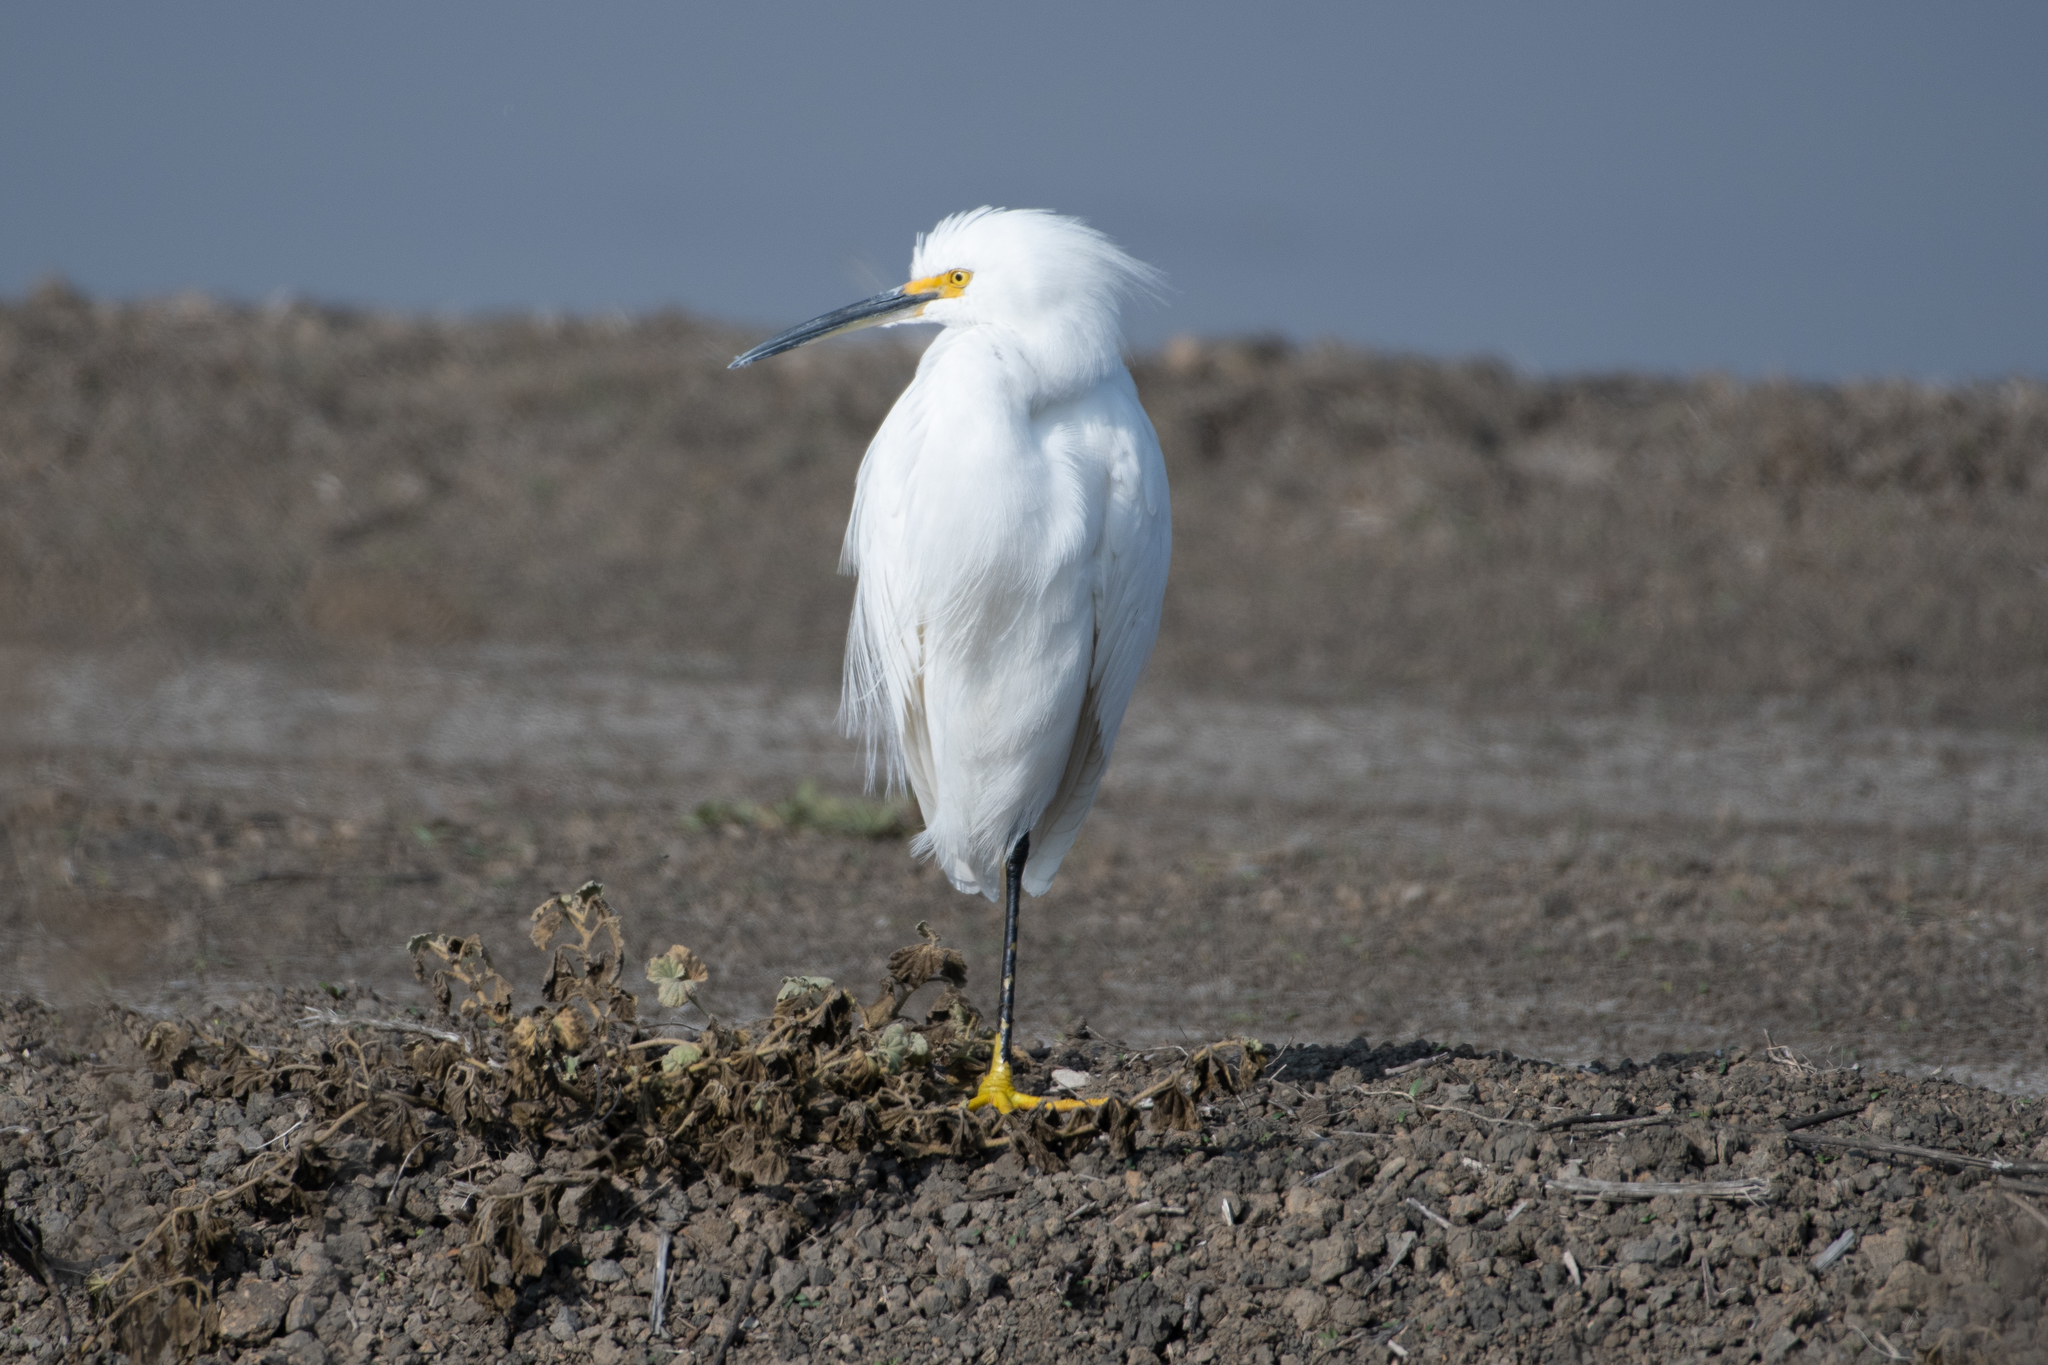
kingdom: Animalia
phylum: Chordata
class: Aves
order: Pelecaniformes
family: Ardeidae
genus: Egretta
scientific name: Egretta thula
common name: Snowy egret
